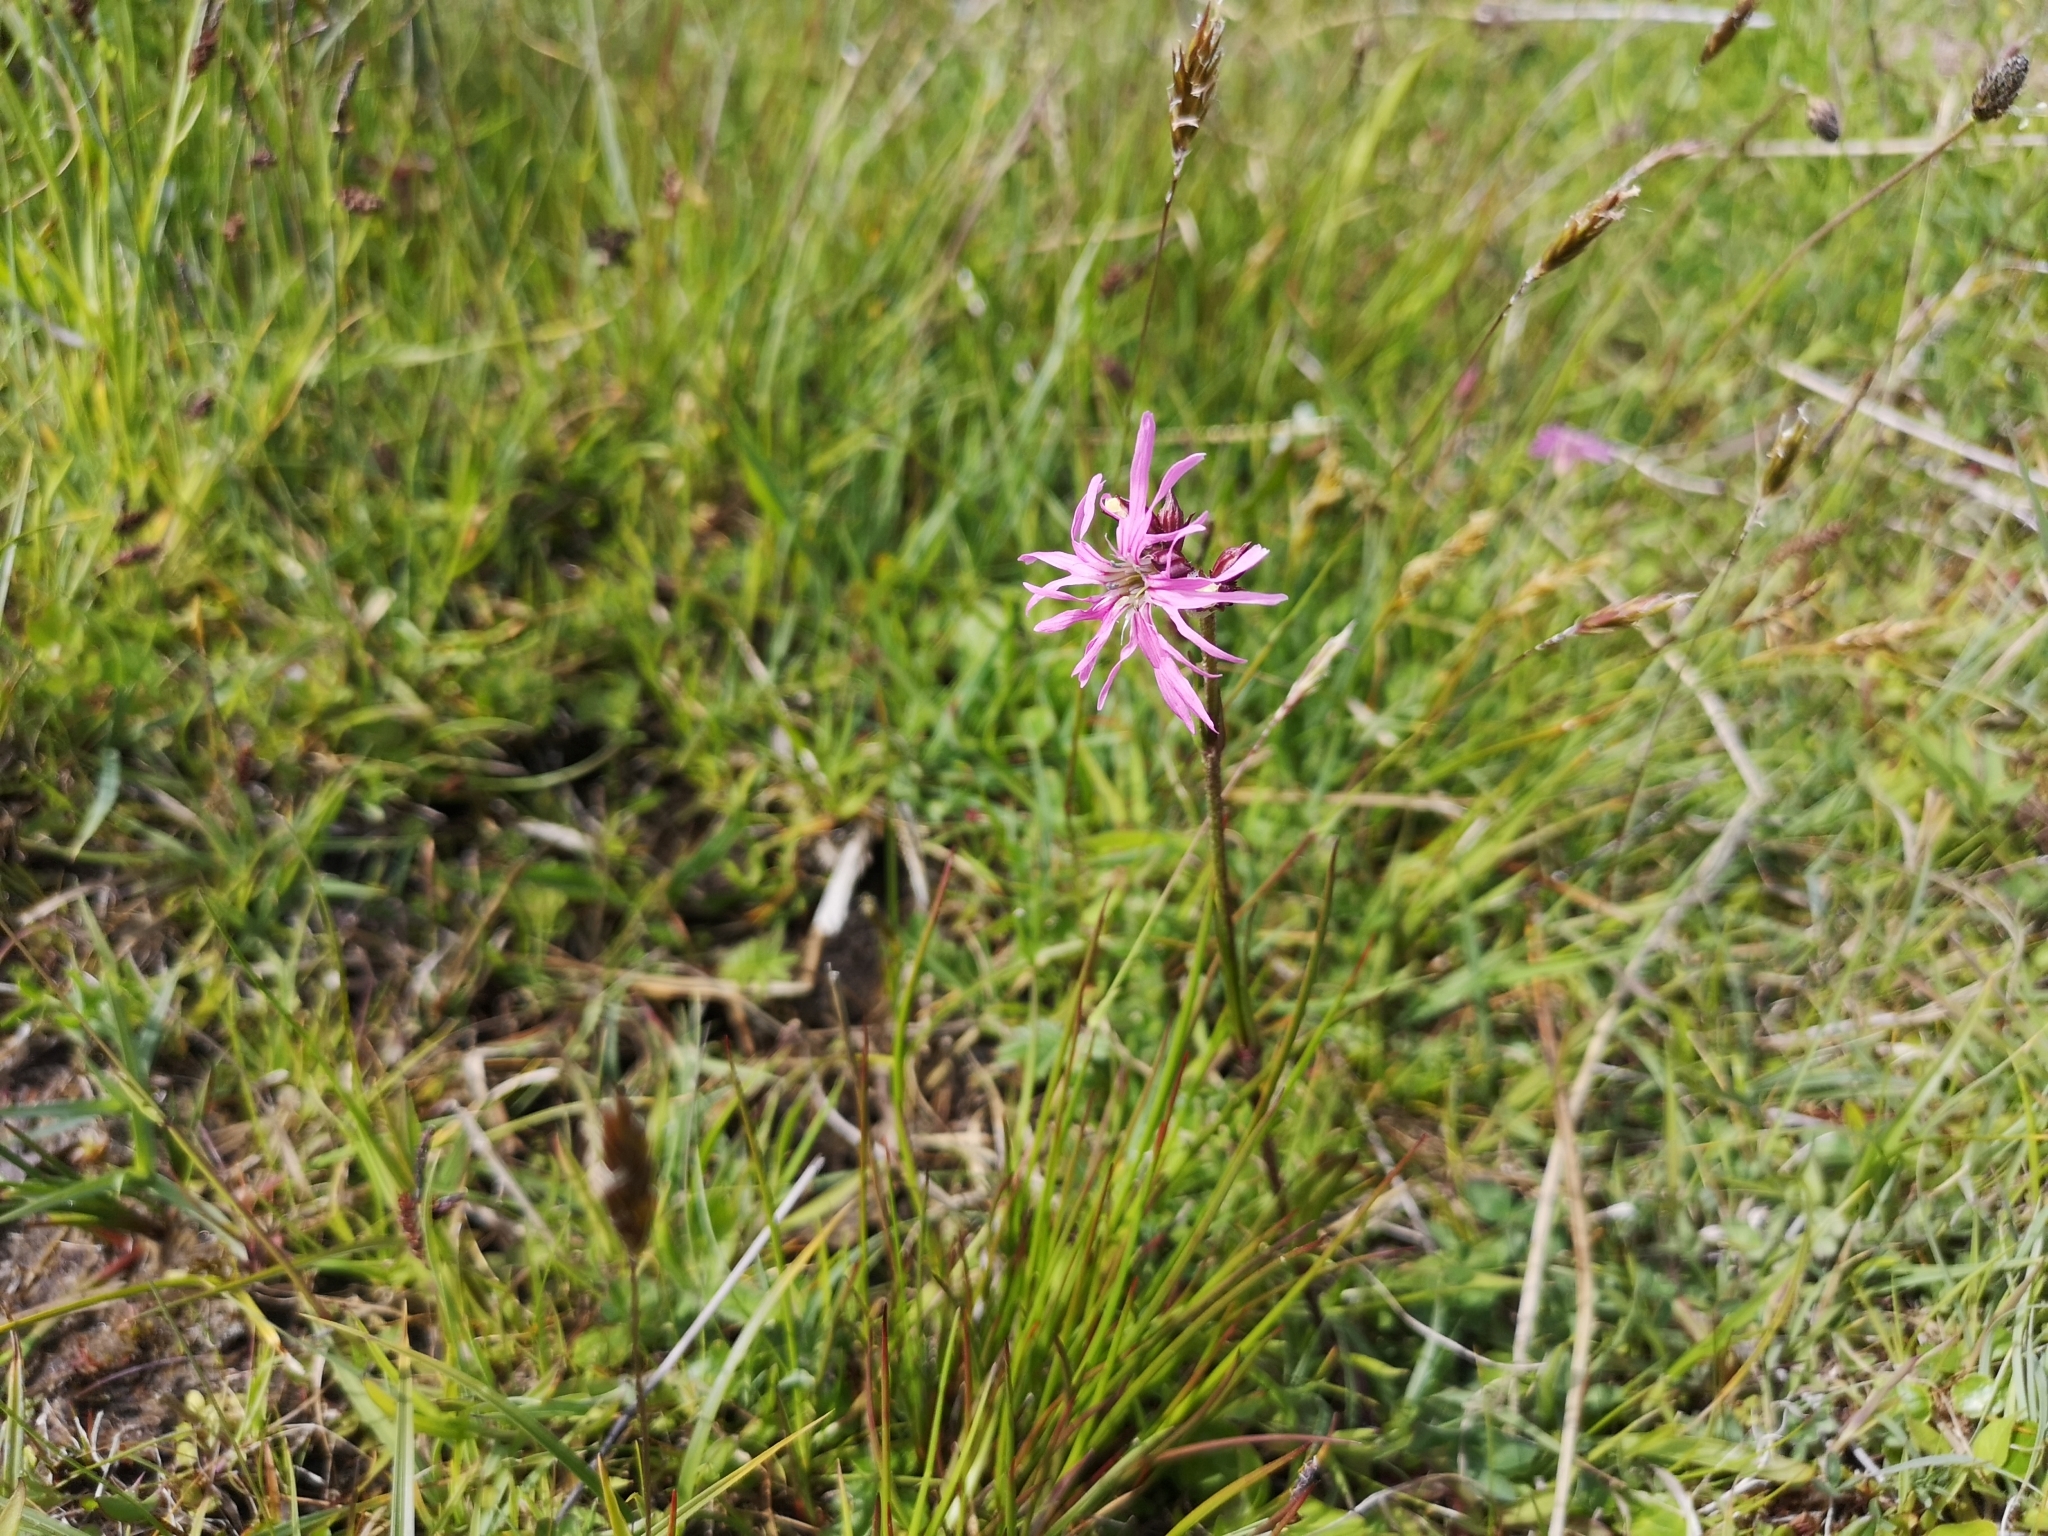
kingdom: Plantae
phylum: Tracheophyta
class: Magnoliopsida
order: Caryophyllales
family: Caryophyllaceae
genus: Silene
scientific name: Silene flos-cuculi
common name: Ragged-robin
